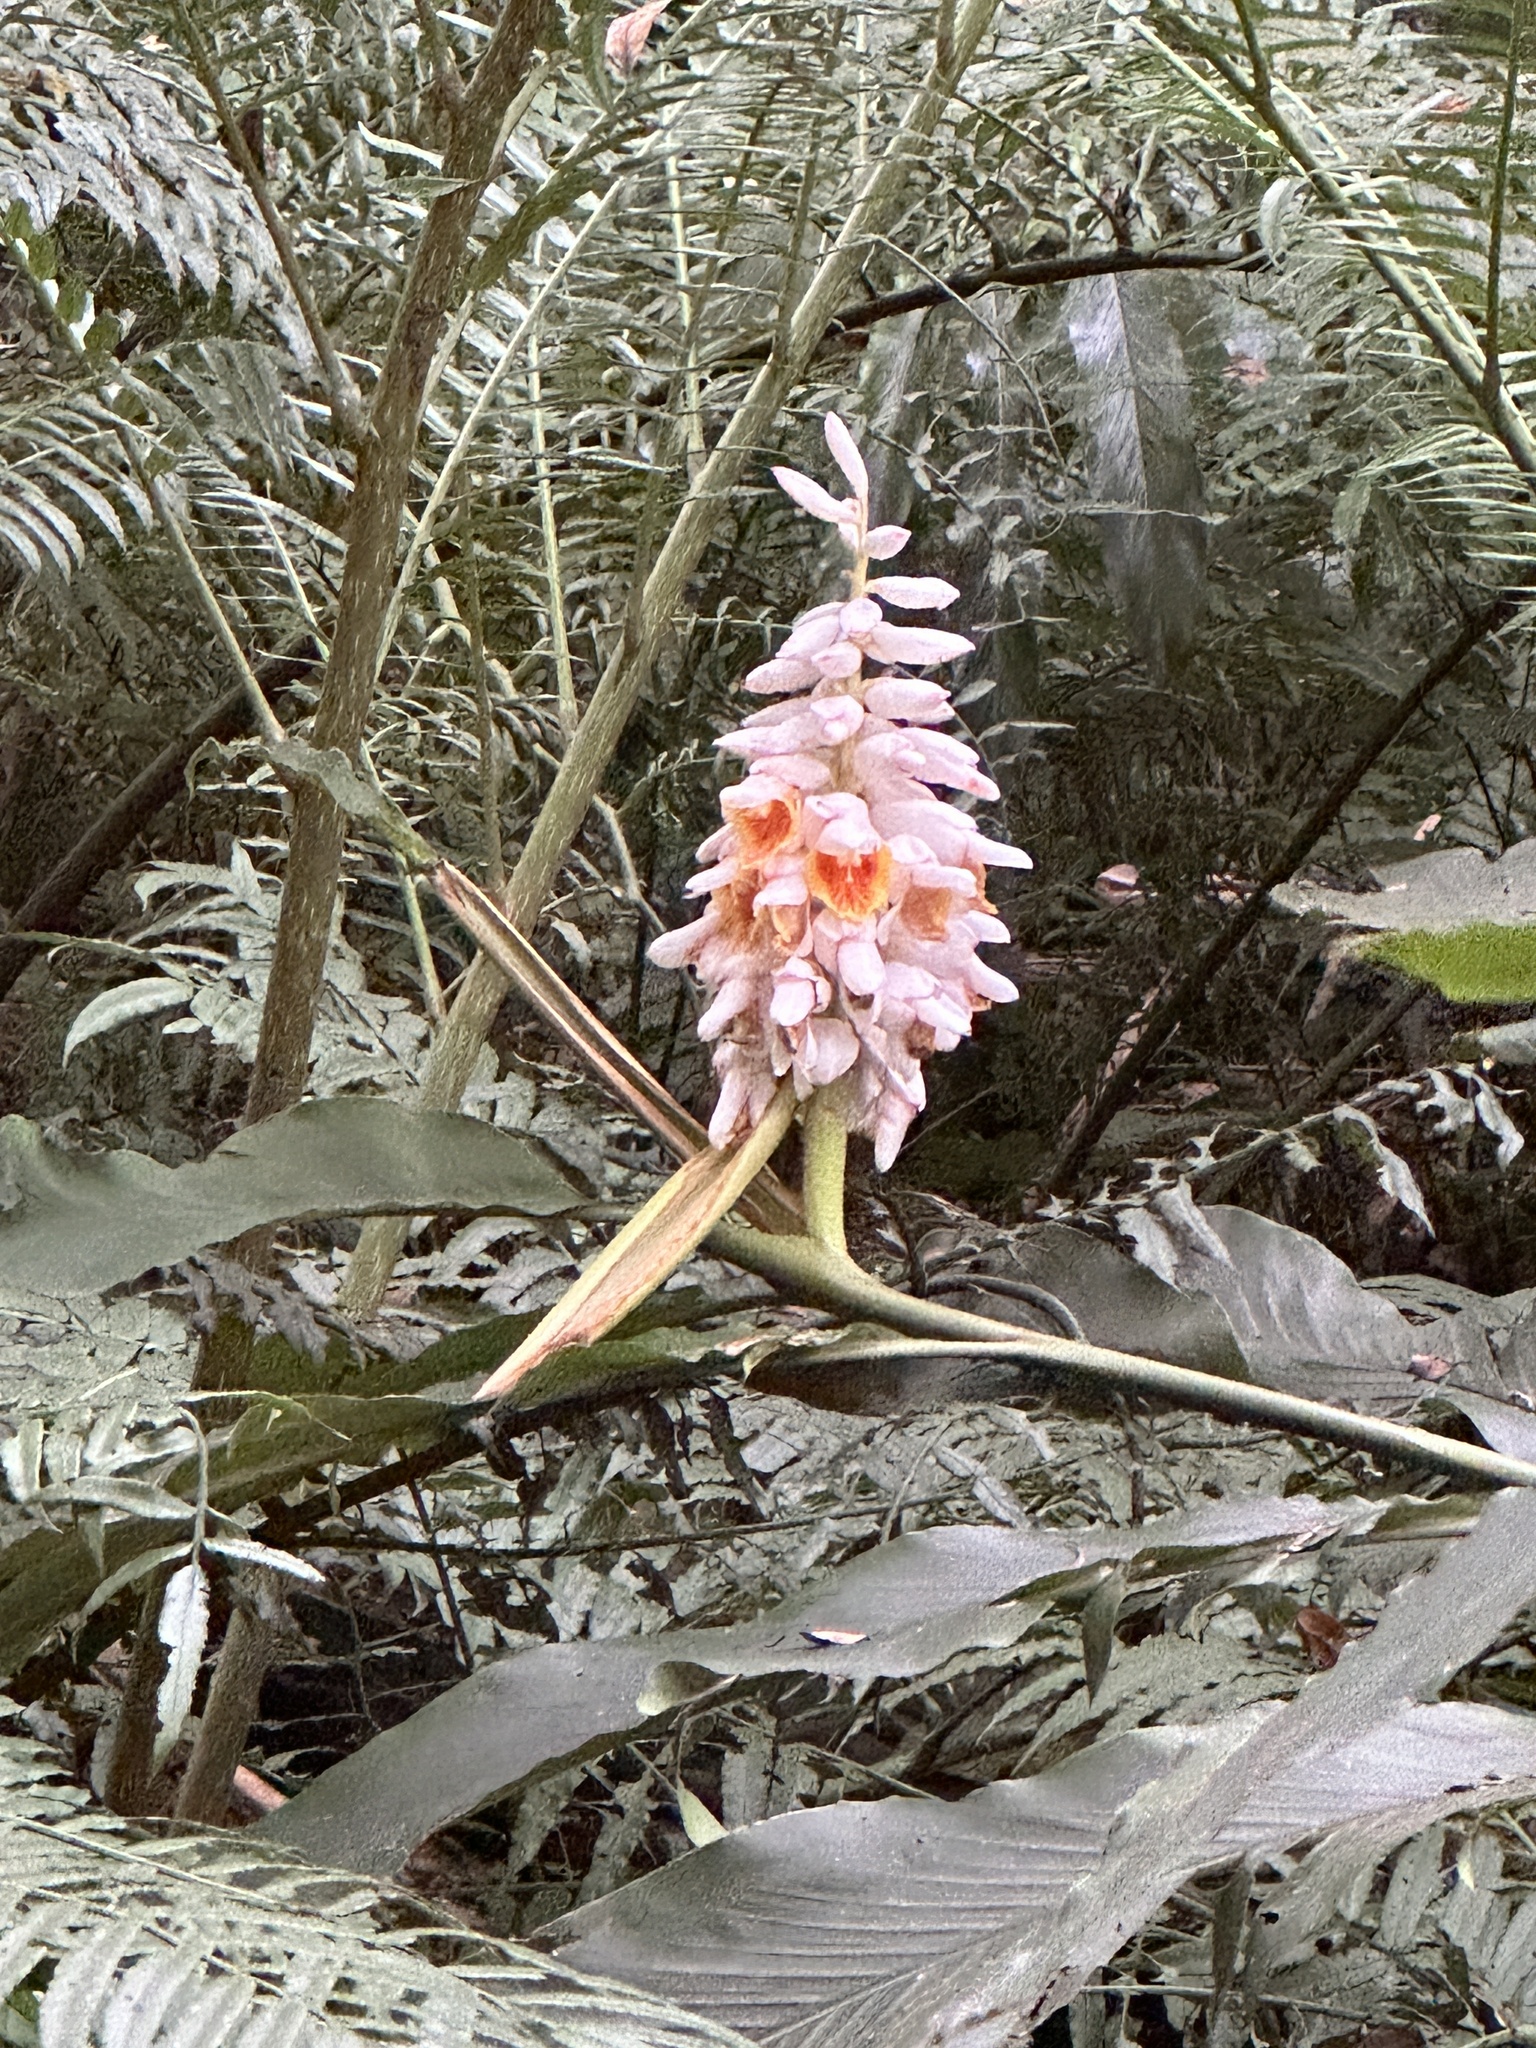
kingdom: Plantae
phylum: Tracheophyta
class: Liliopsida
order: Zingiberales
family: Zingiberaceae
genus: Alpinia
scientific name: Alpinia uraiensis
